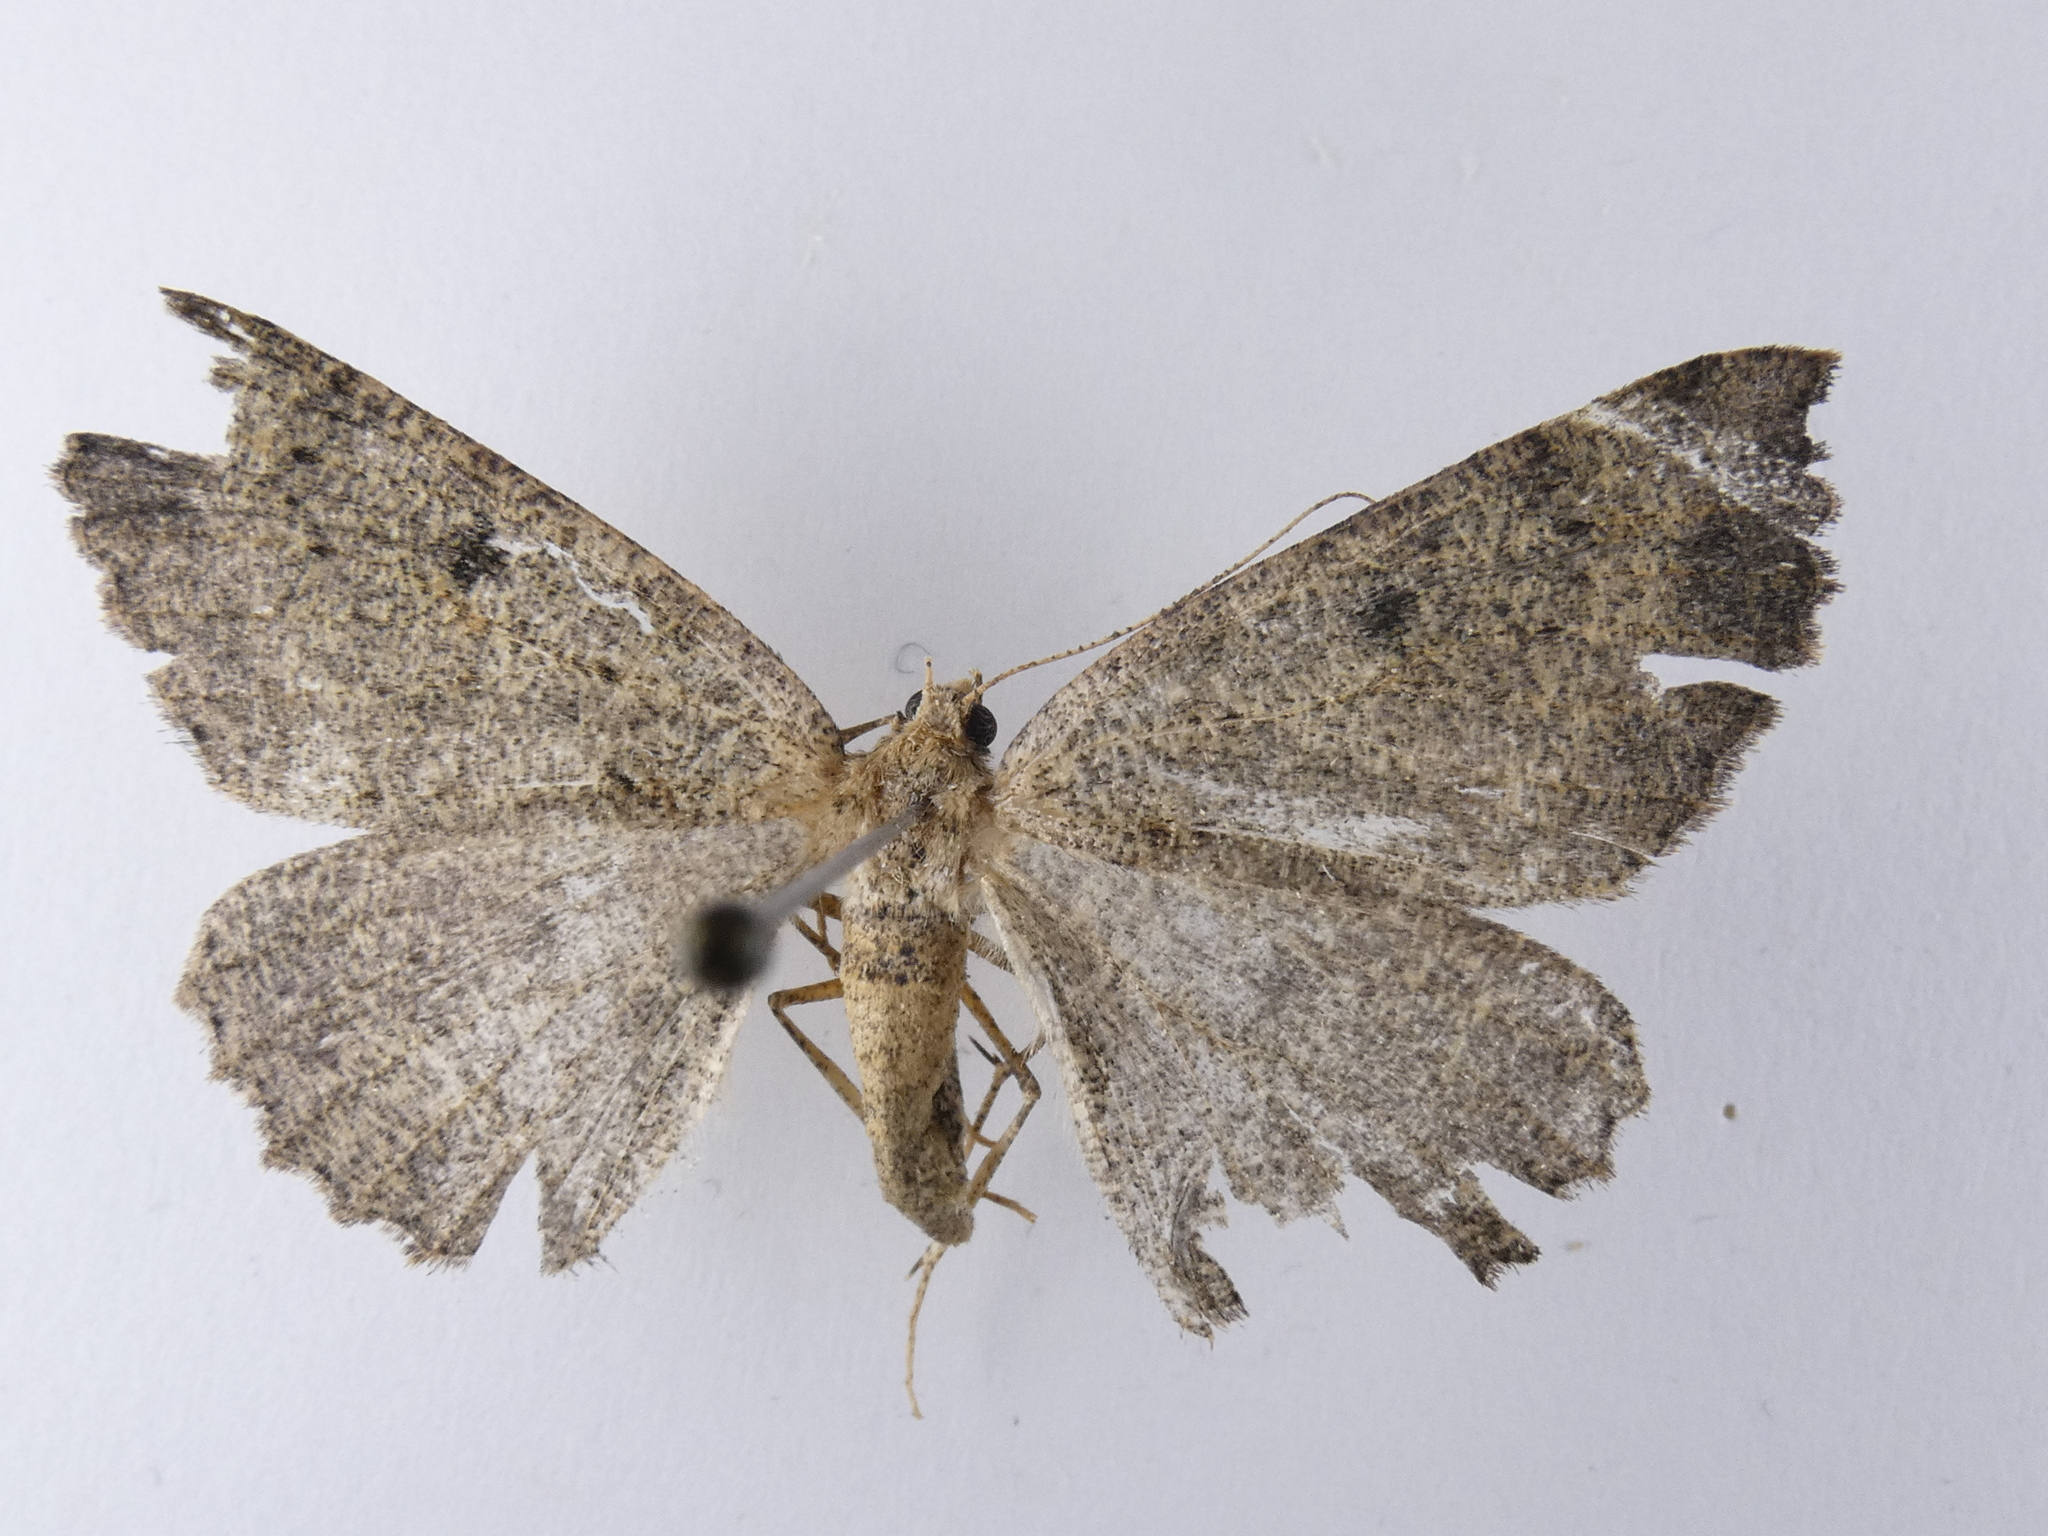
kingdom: Animalia
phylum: Arthropoda
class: Insecta
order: Lepidoptera
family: Geometridae
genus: Cleora
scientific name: Cleora scriptaria
